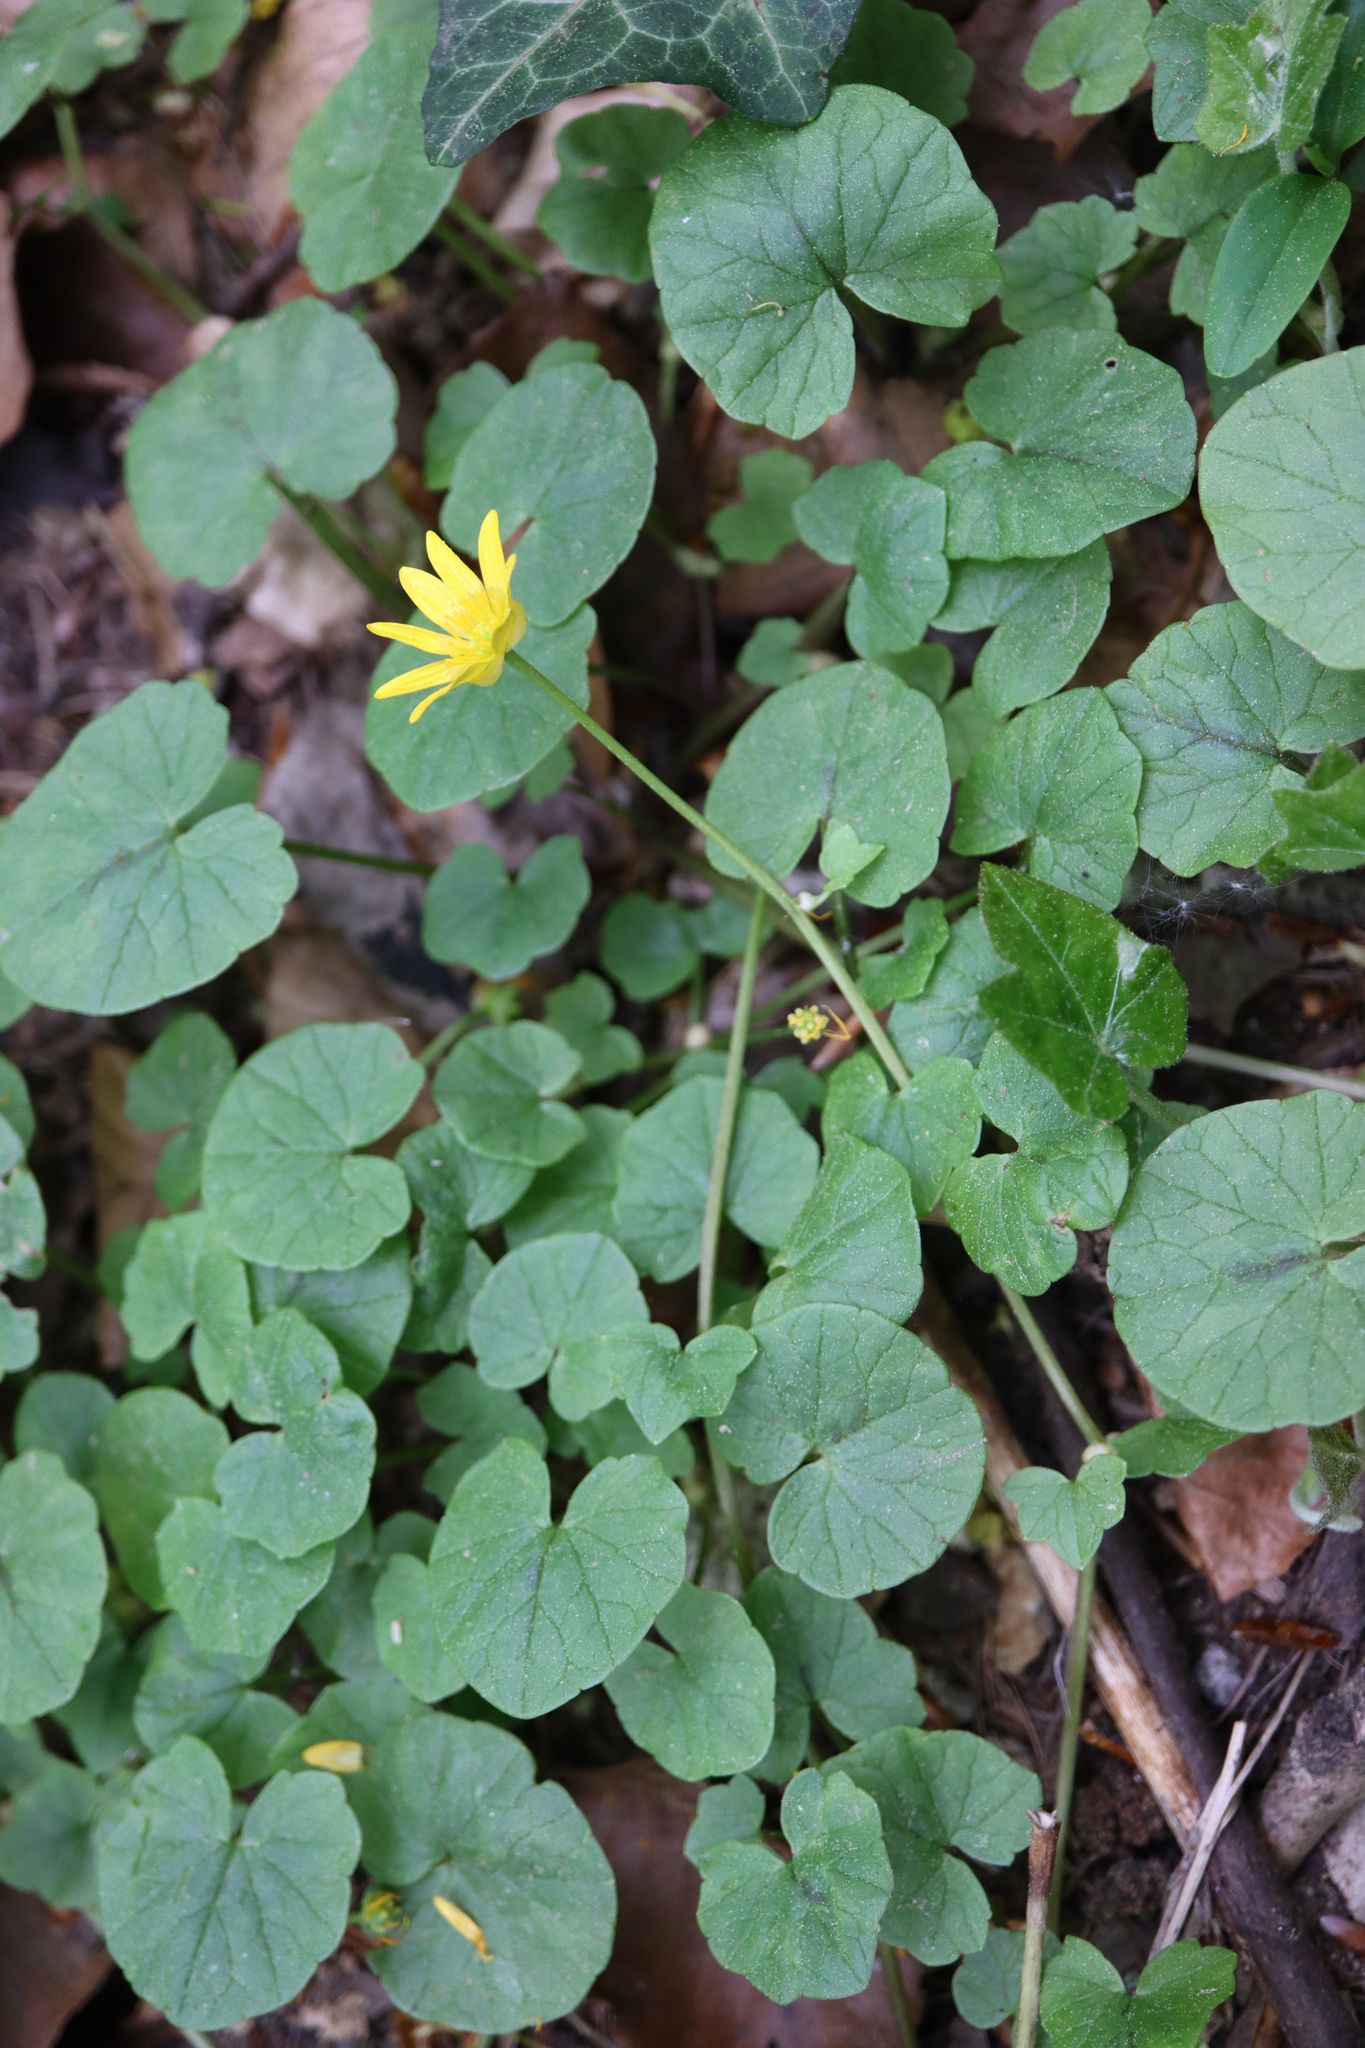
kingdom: Plantae
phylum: Tracheophyta
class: Magnoliopsida
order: Ranunculales
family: Ranunculaceae
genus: Ficaria
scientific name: Ficaria verna
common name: Lesser celandine
